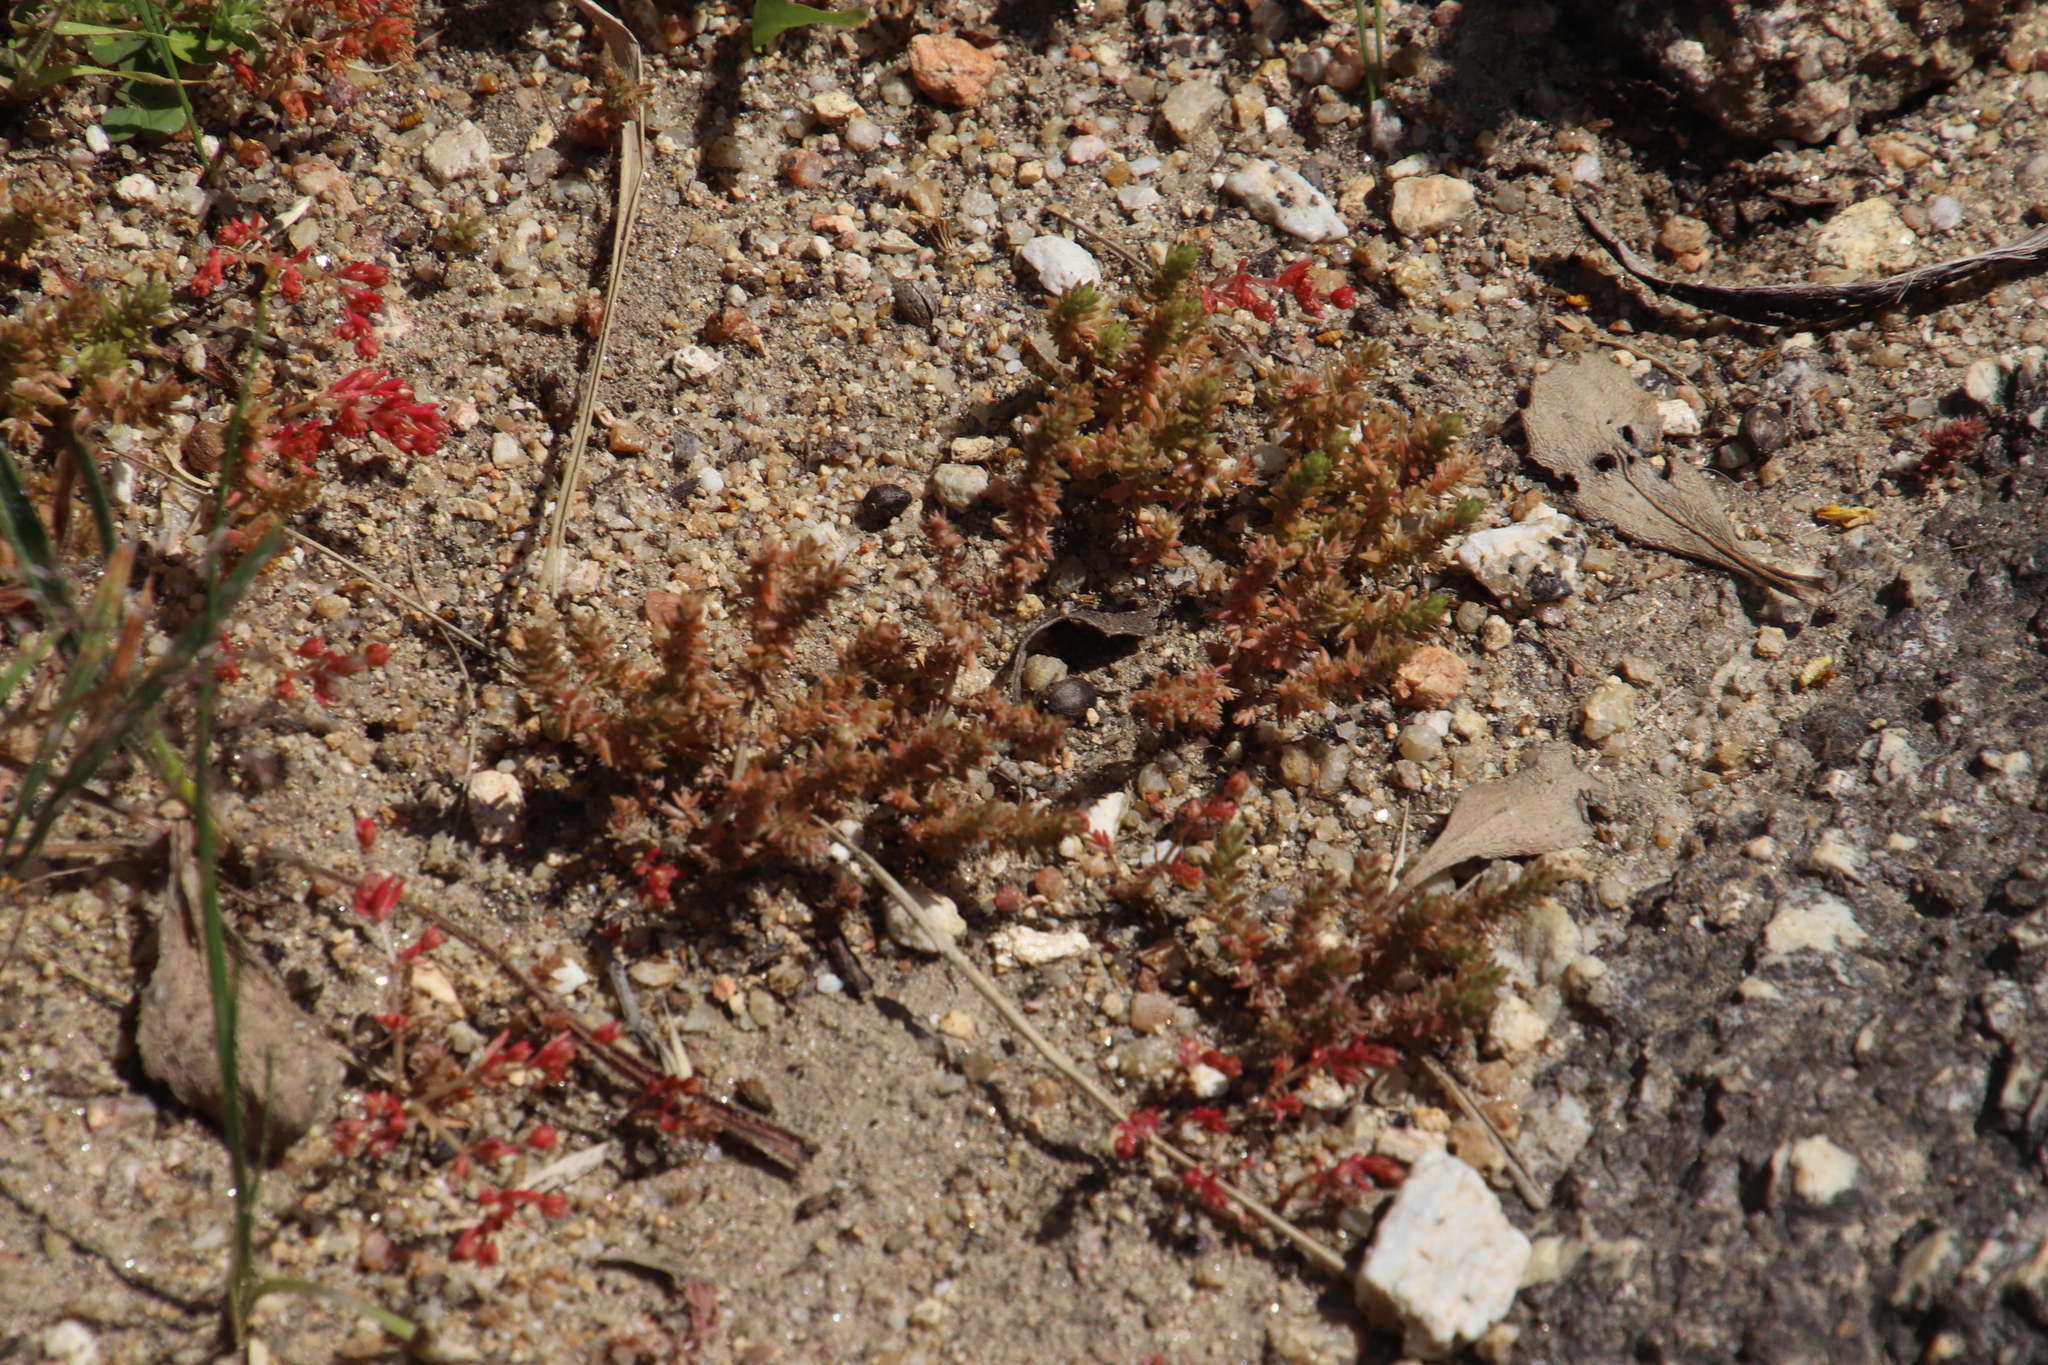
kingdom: Plantae
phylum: Tracheophyta
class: Magnoliopsida
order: Saxifragales
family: Crassulaceae
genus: Crassula
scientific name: Crassula thunbergiana
